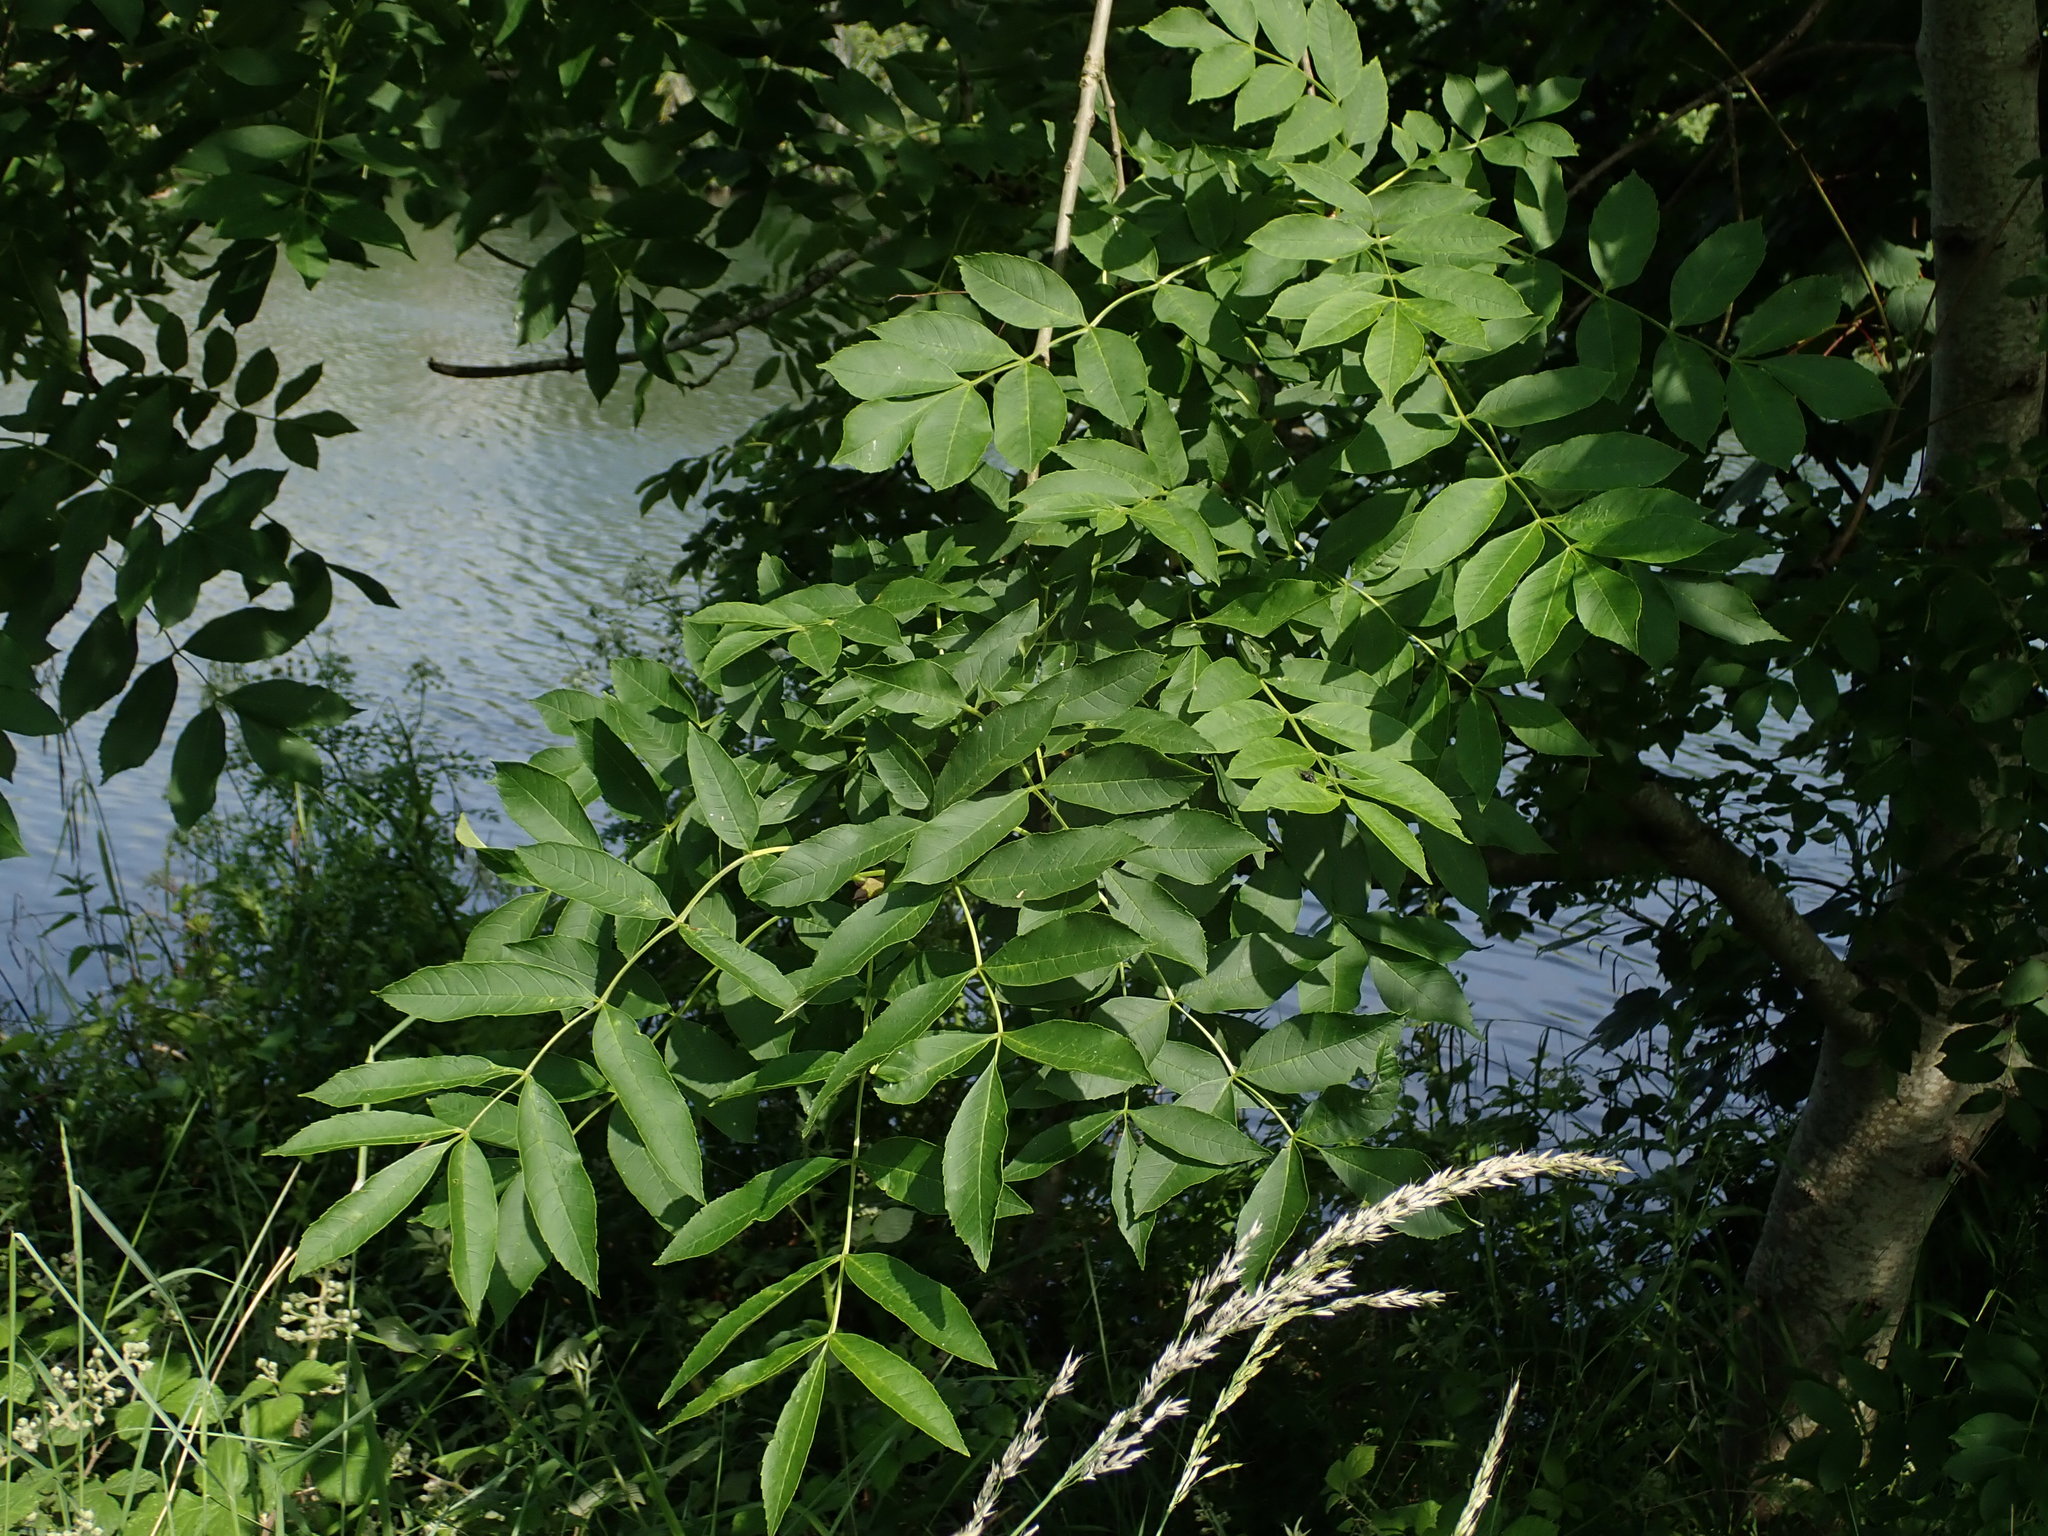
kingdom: Plantae
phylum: Tracheophyta
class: Magnoliopsida
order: Lamiales
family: Oleaceae
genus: Fraxinus
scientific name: Fraxinus excelsior
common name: European ash
